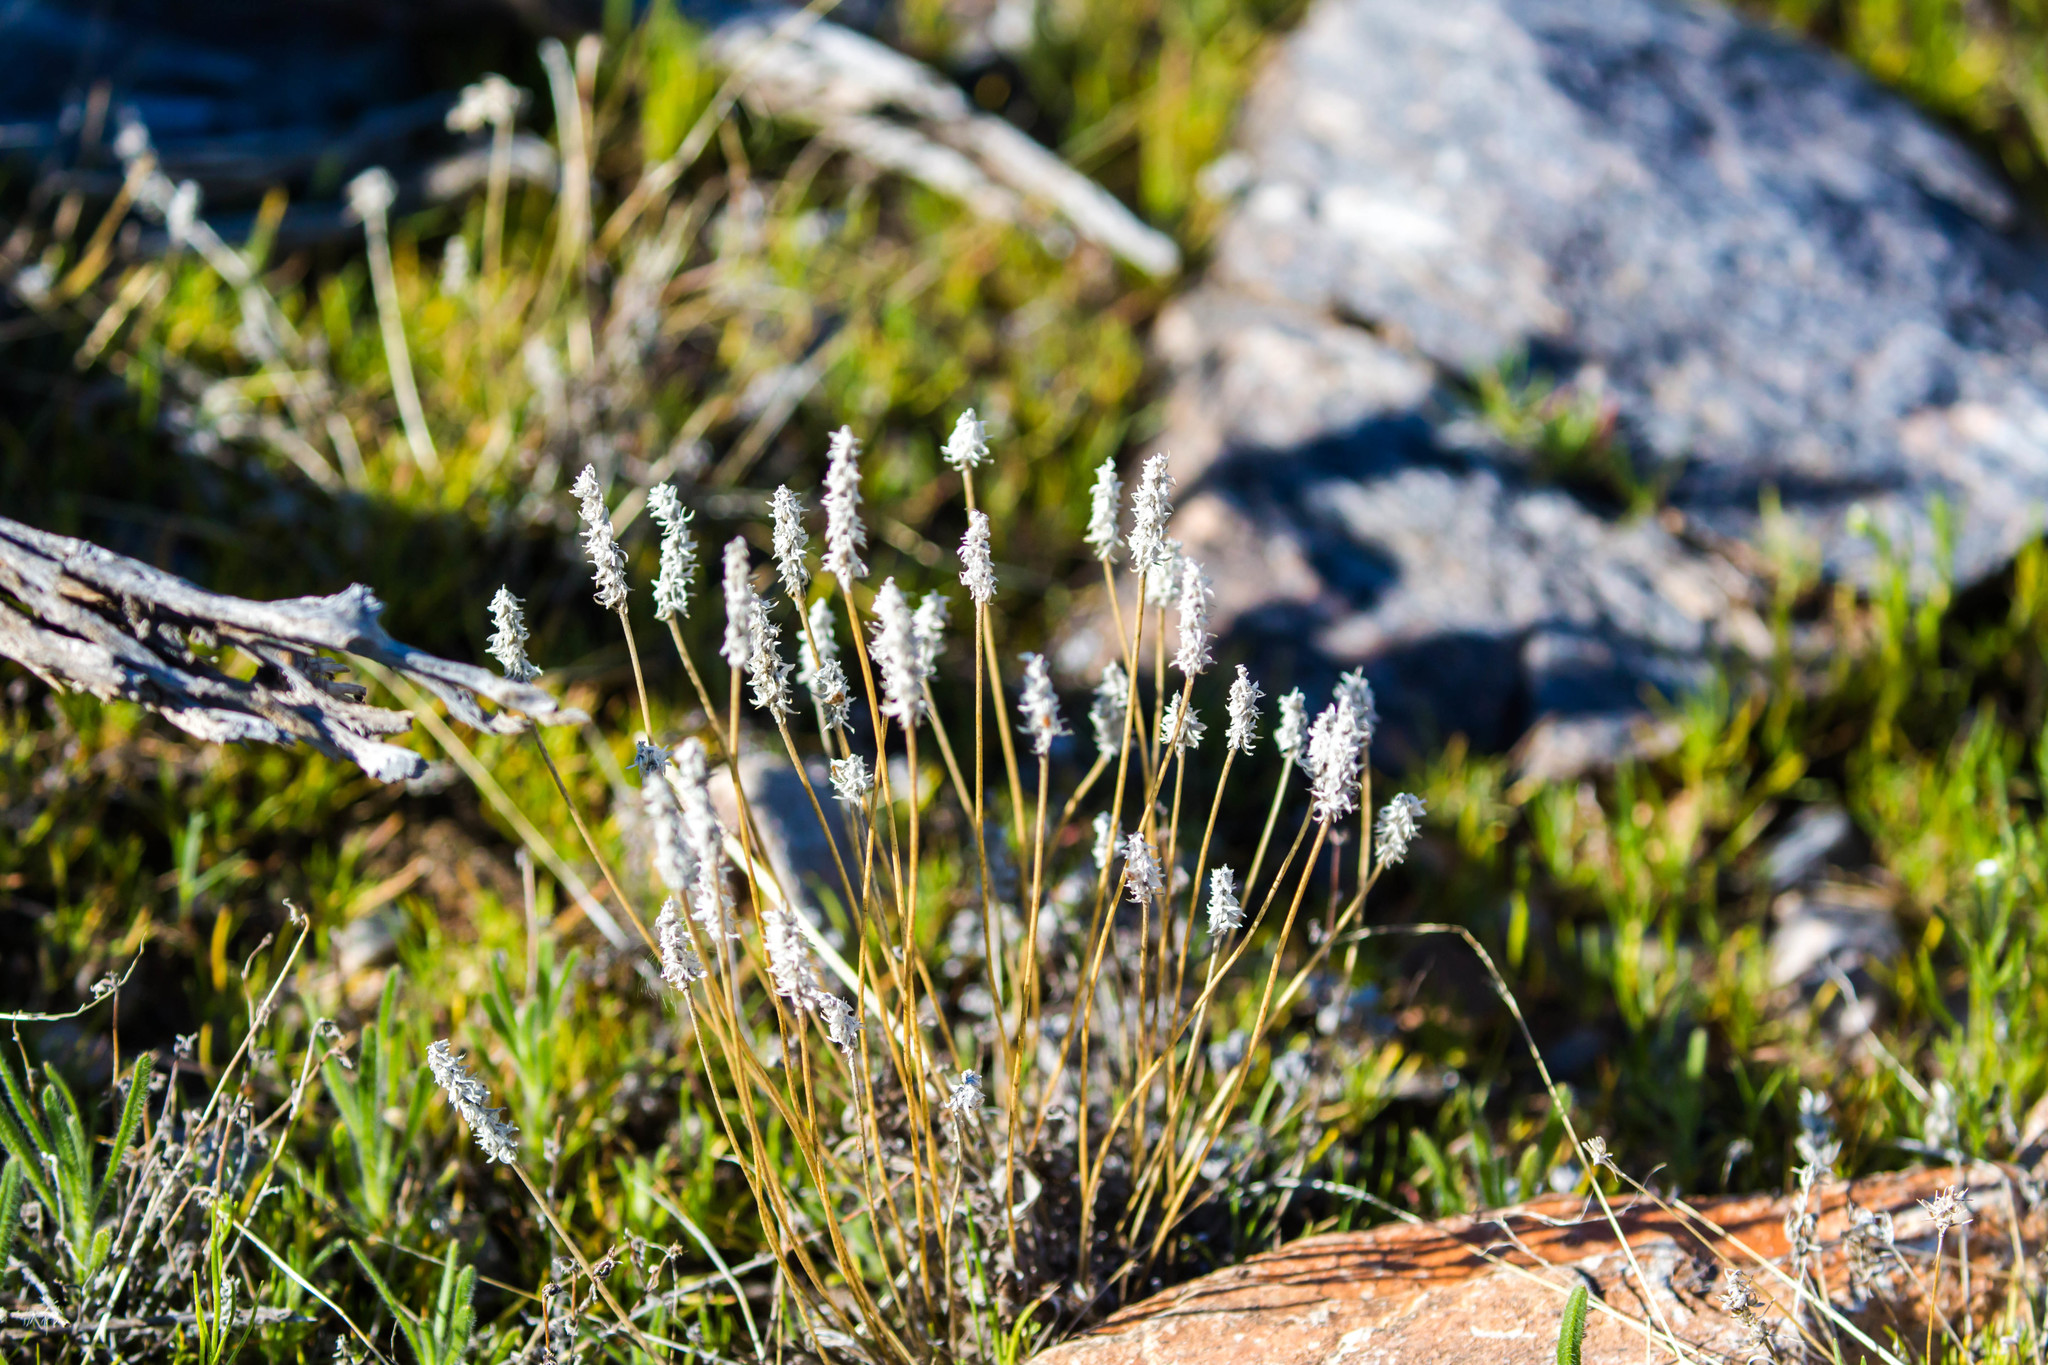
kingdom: Plantae
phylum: Tracheophyta
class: Magnoliopsida
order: Lamiales
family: Plantaginaceae
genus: Plantago
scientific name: Plantago patagonica
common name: Patagonia indian-wheat
